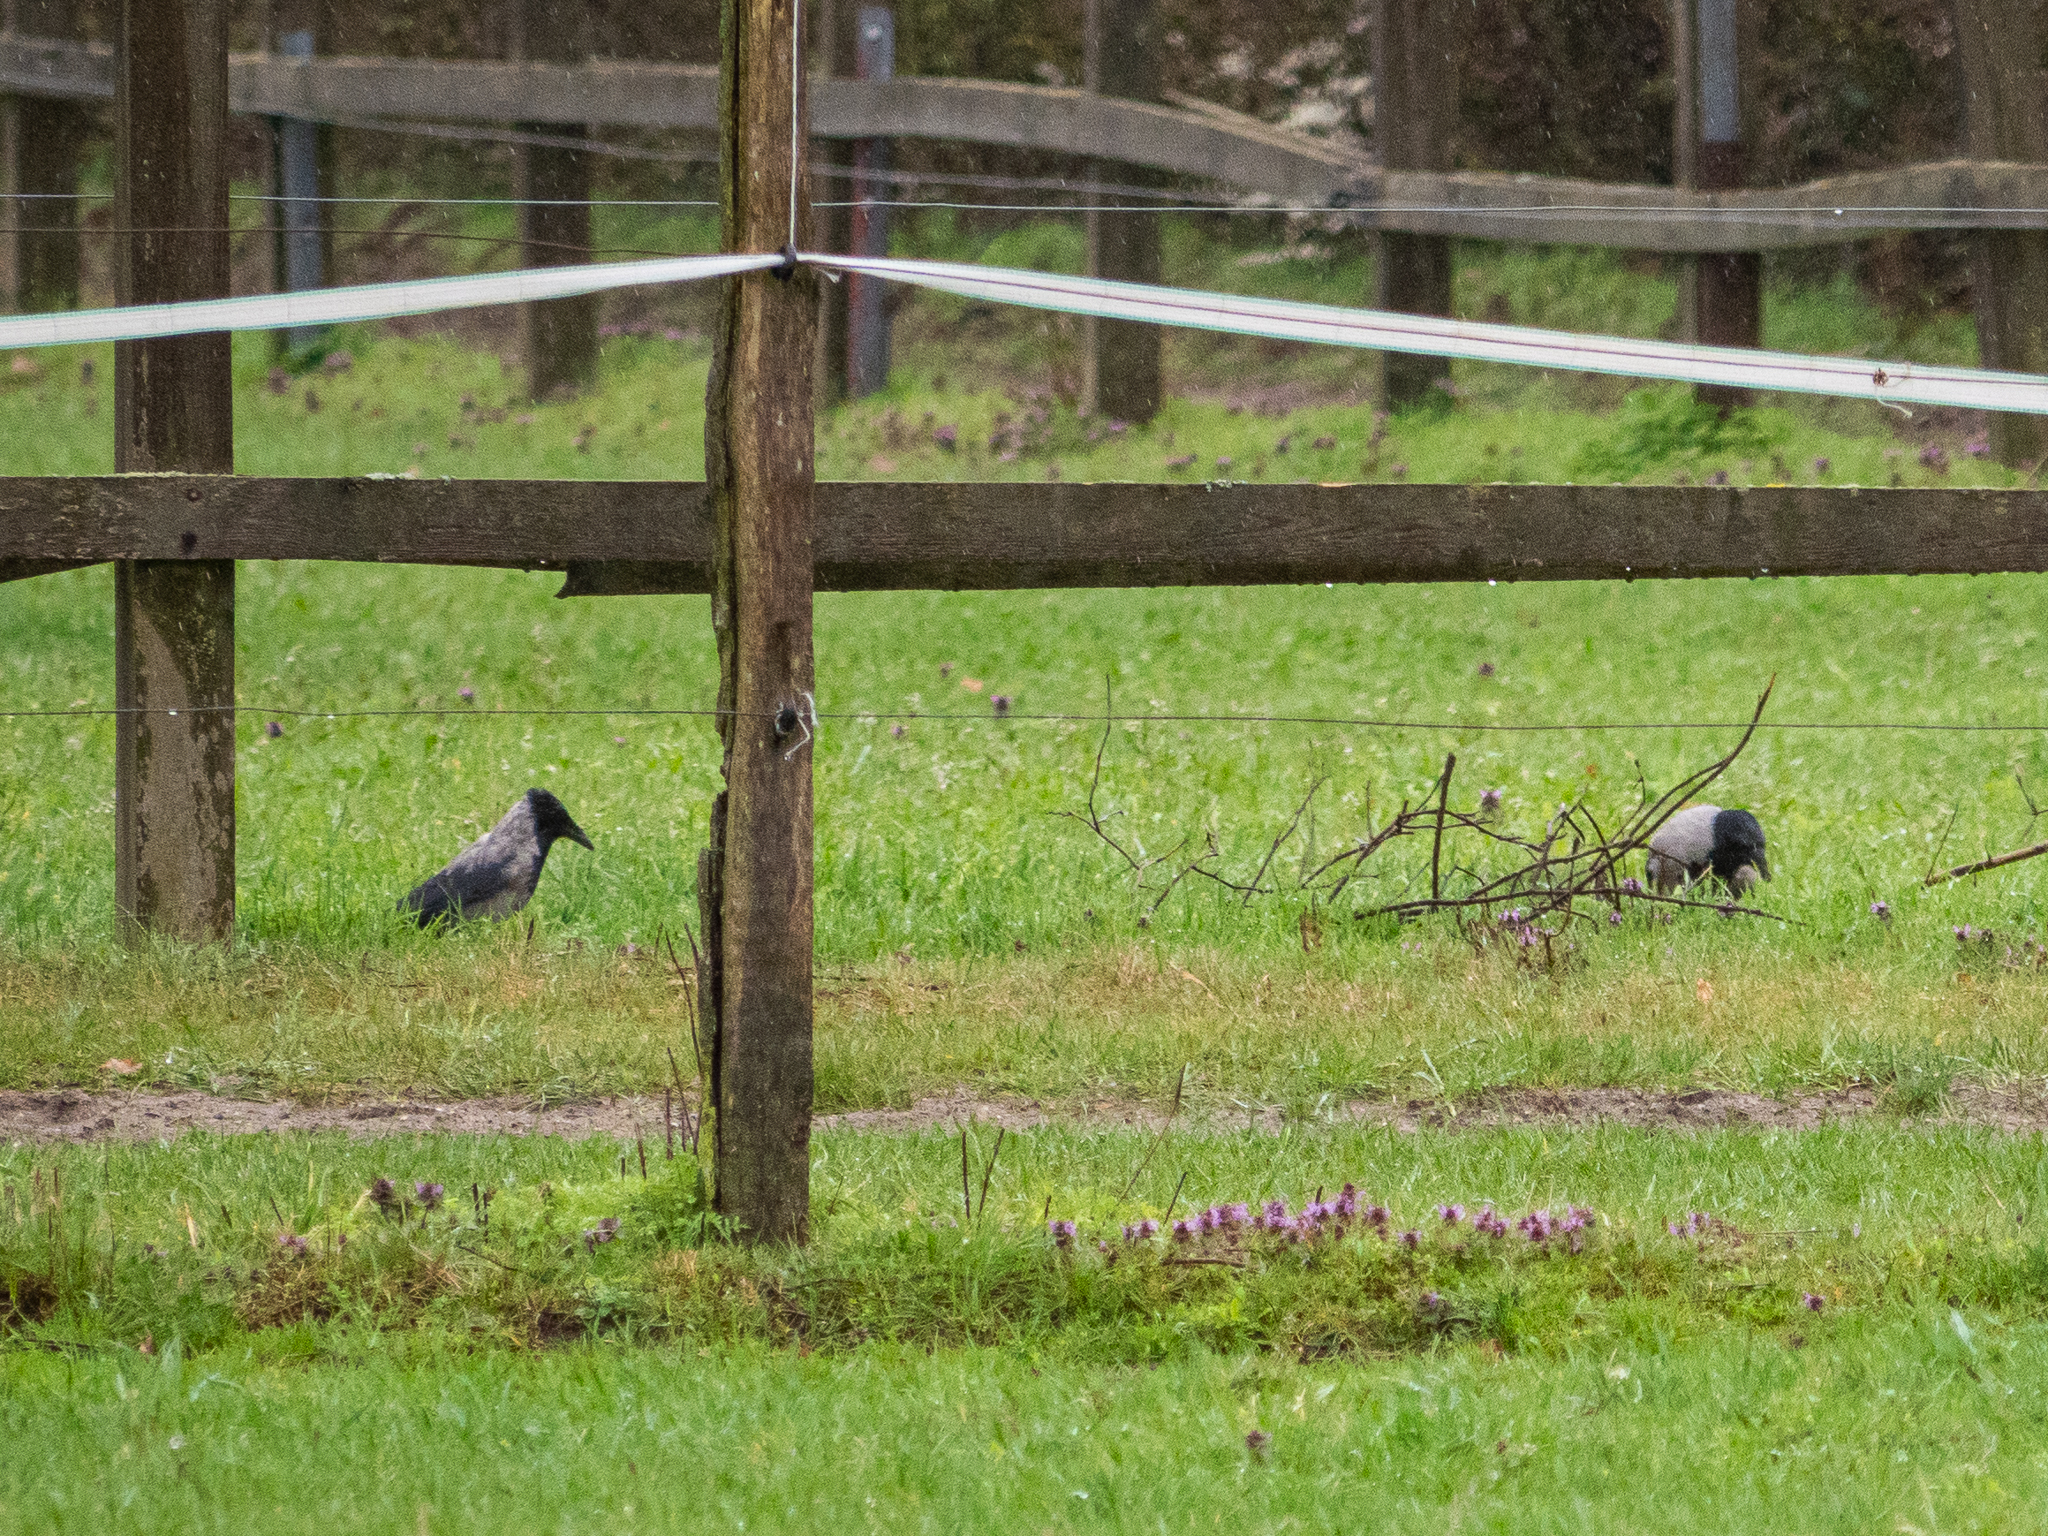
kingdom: Animalia
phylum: Chordata
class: Aves
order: Passeriformes
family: Corvidae
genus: Corvus
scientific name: Corvus cornix
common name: Hooded crow
